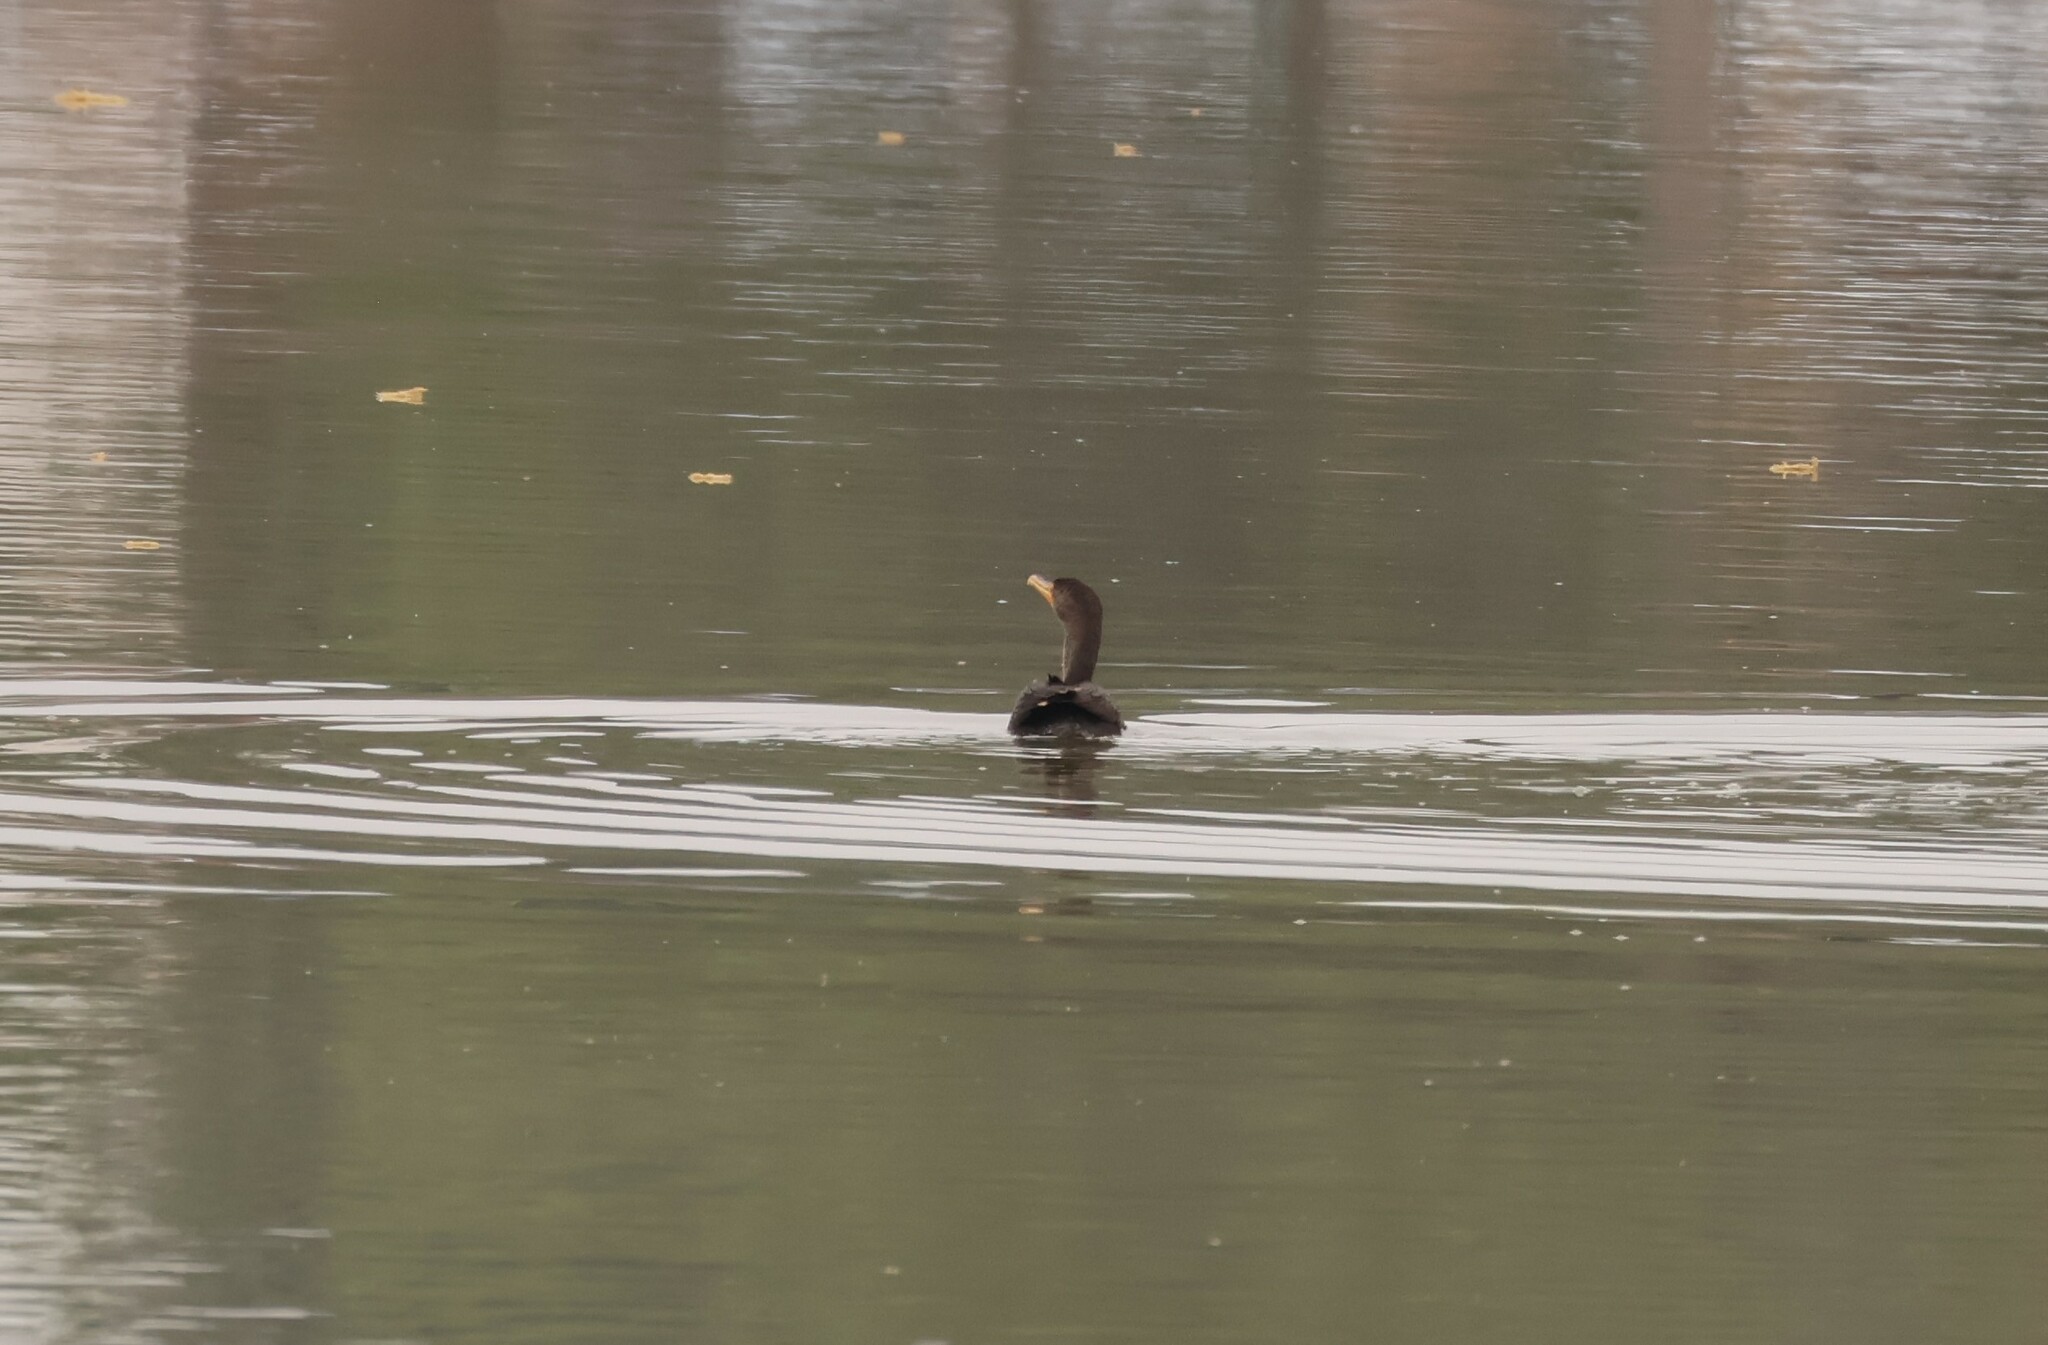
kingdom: Animalia
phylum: Chordata
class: Aves
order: Suliformes
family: Phalacrocoracidae
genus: Phalacrocorax
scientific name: Phalacrocorax auritus
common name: Double-crested cormorant
